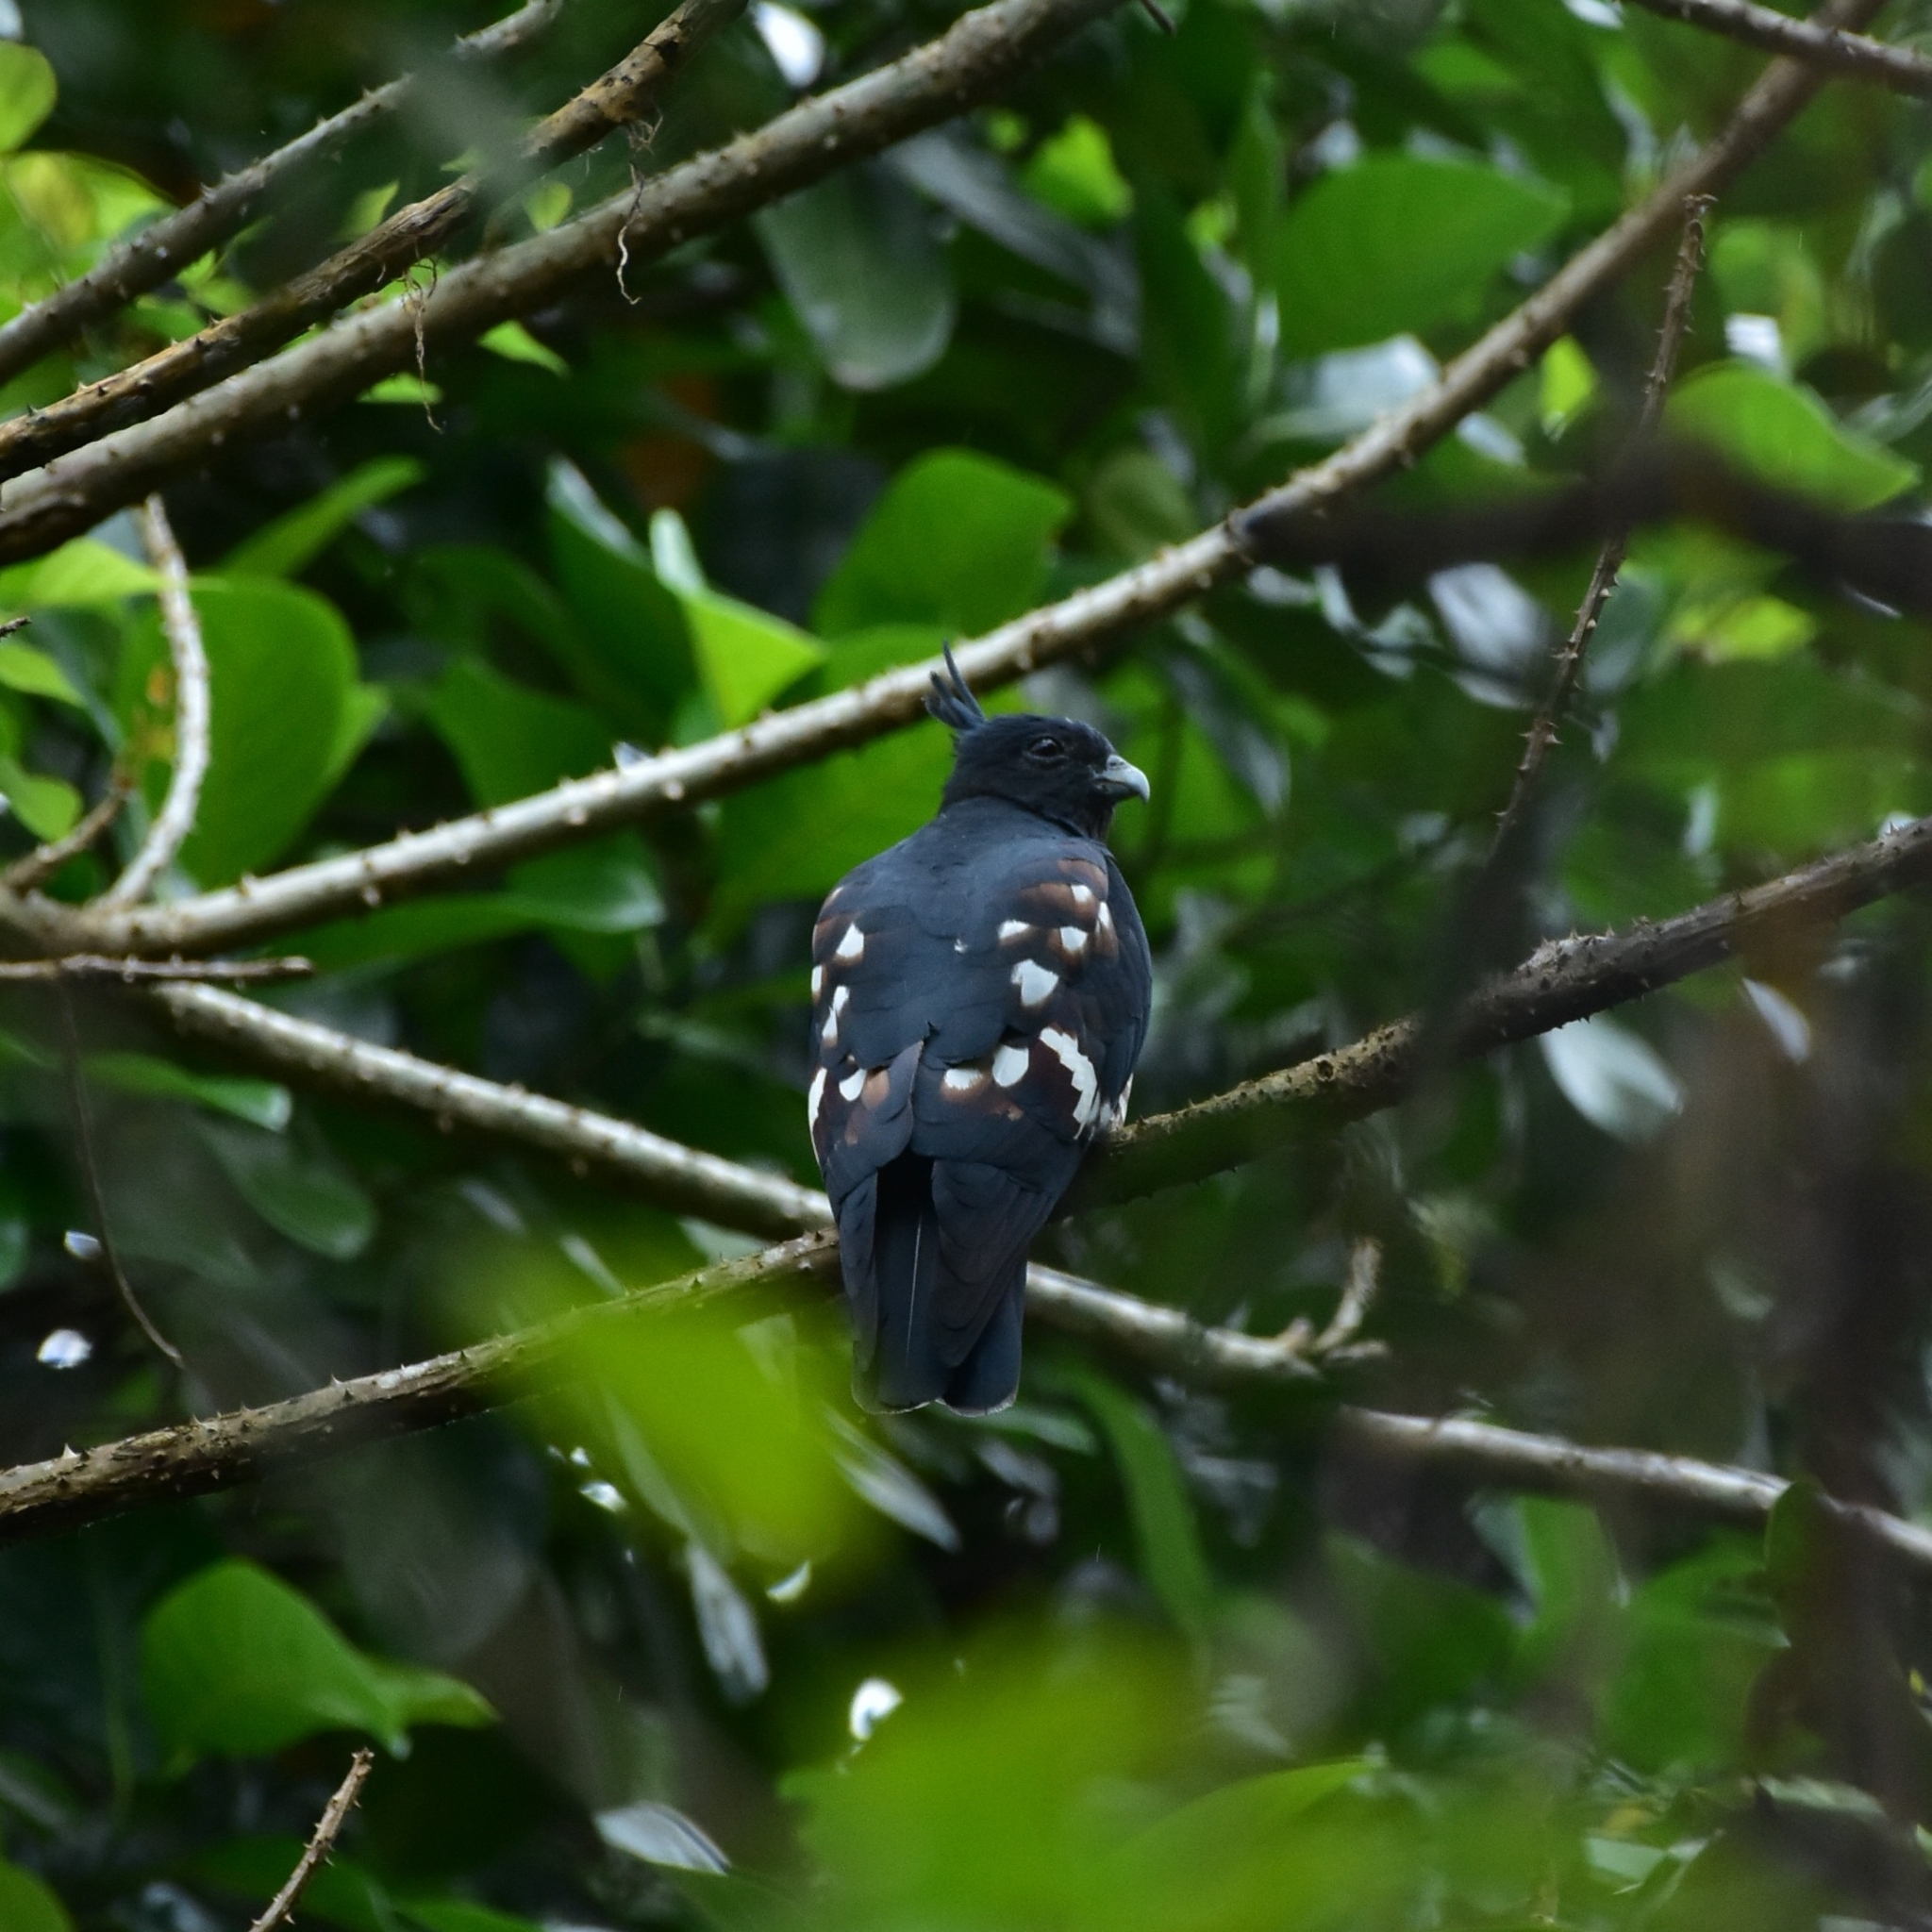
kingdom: Animalia
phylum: Chordata
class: Aves
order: Accipitriformes
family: Accipitridae
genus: Aviceda
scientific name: Aviceda leuphotes
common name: Black baza
